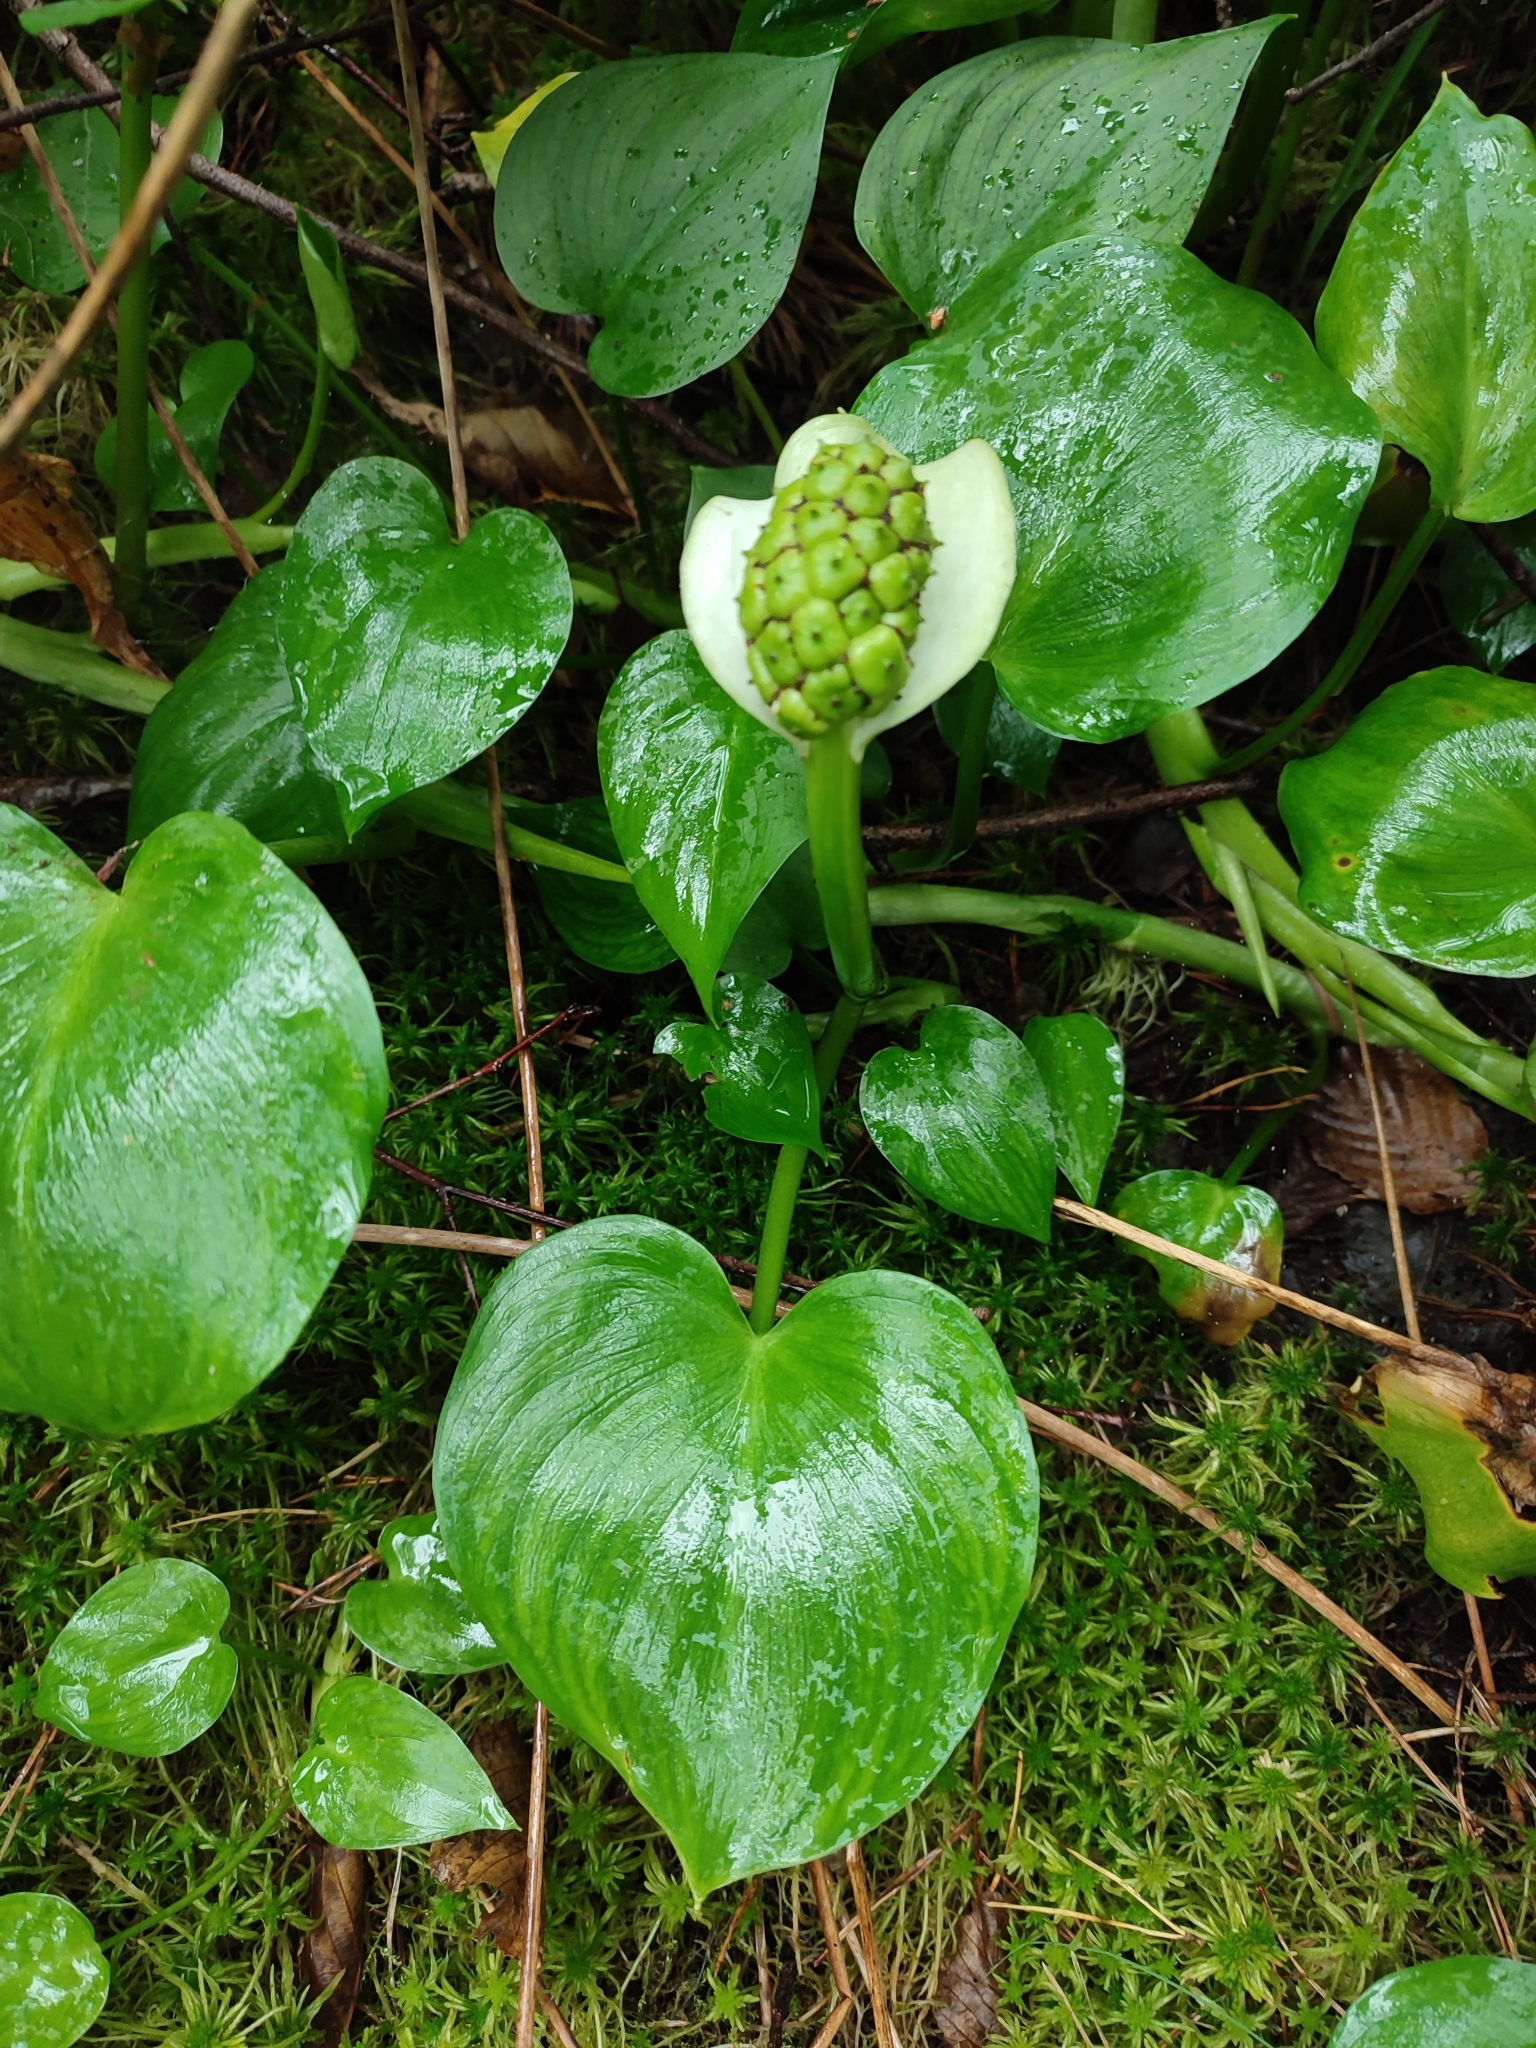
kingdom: Plantae
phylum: Tracheophyta
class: Liliopsida
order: Alismatales
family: Araceae
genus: Calla
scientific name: Calla palustris
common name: Bog arum
